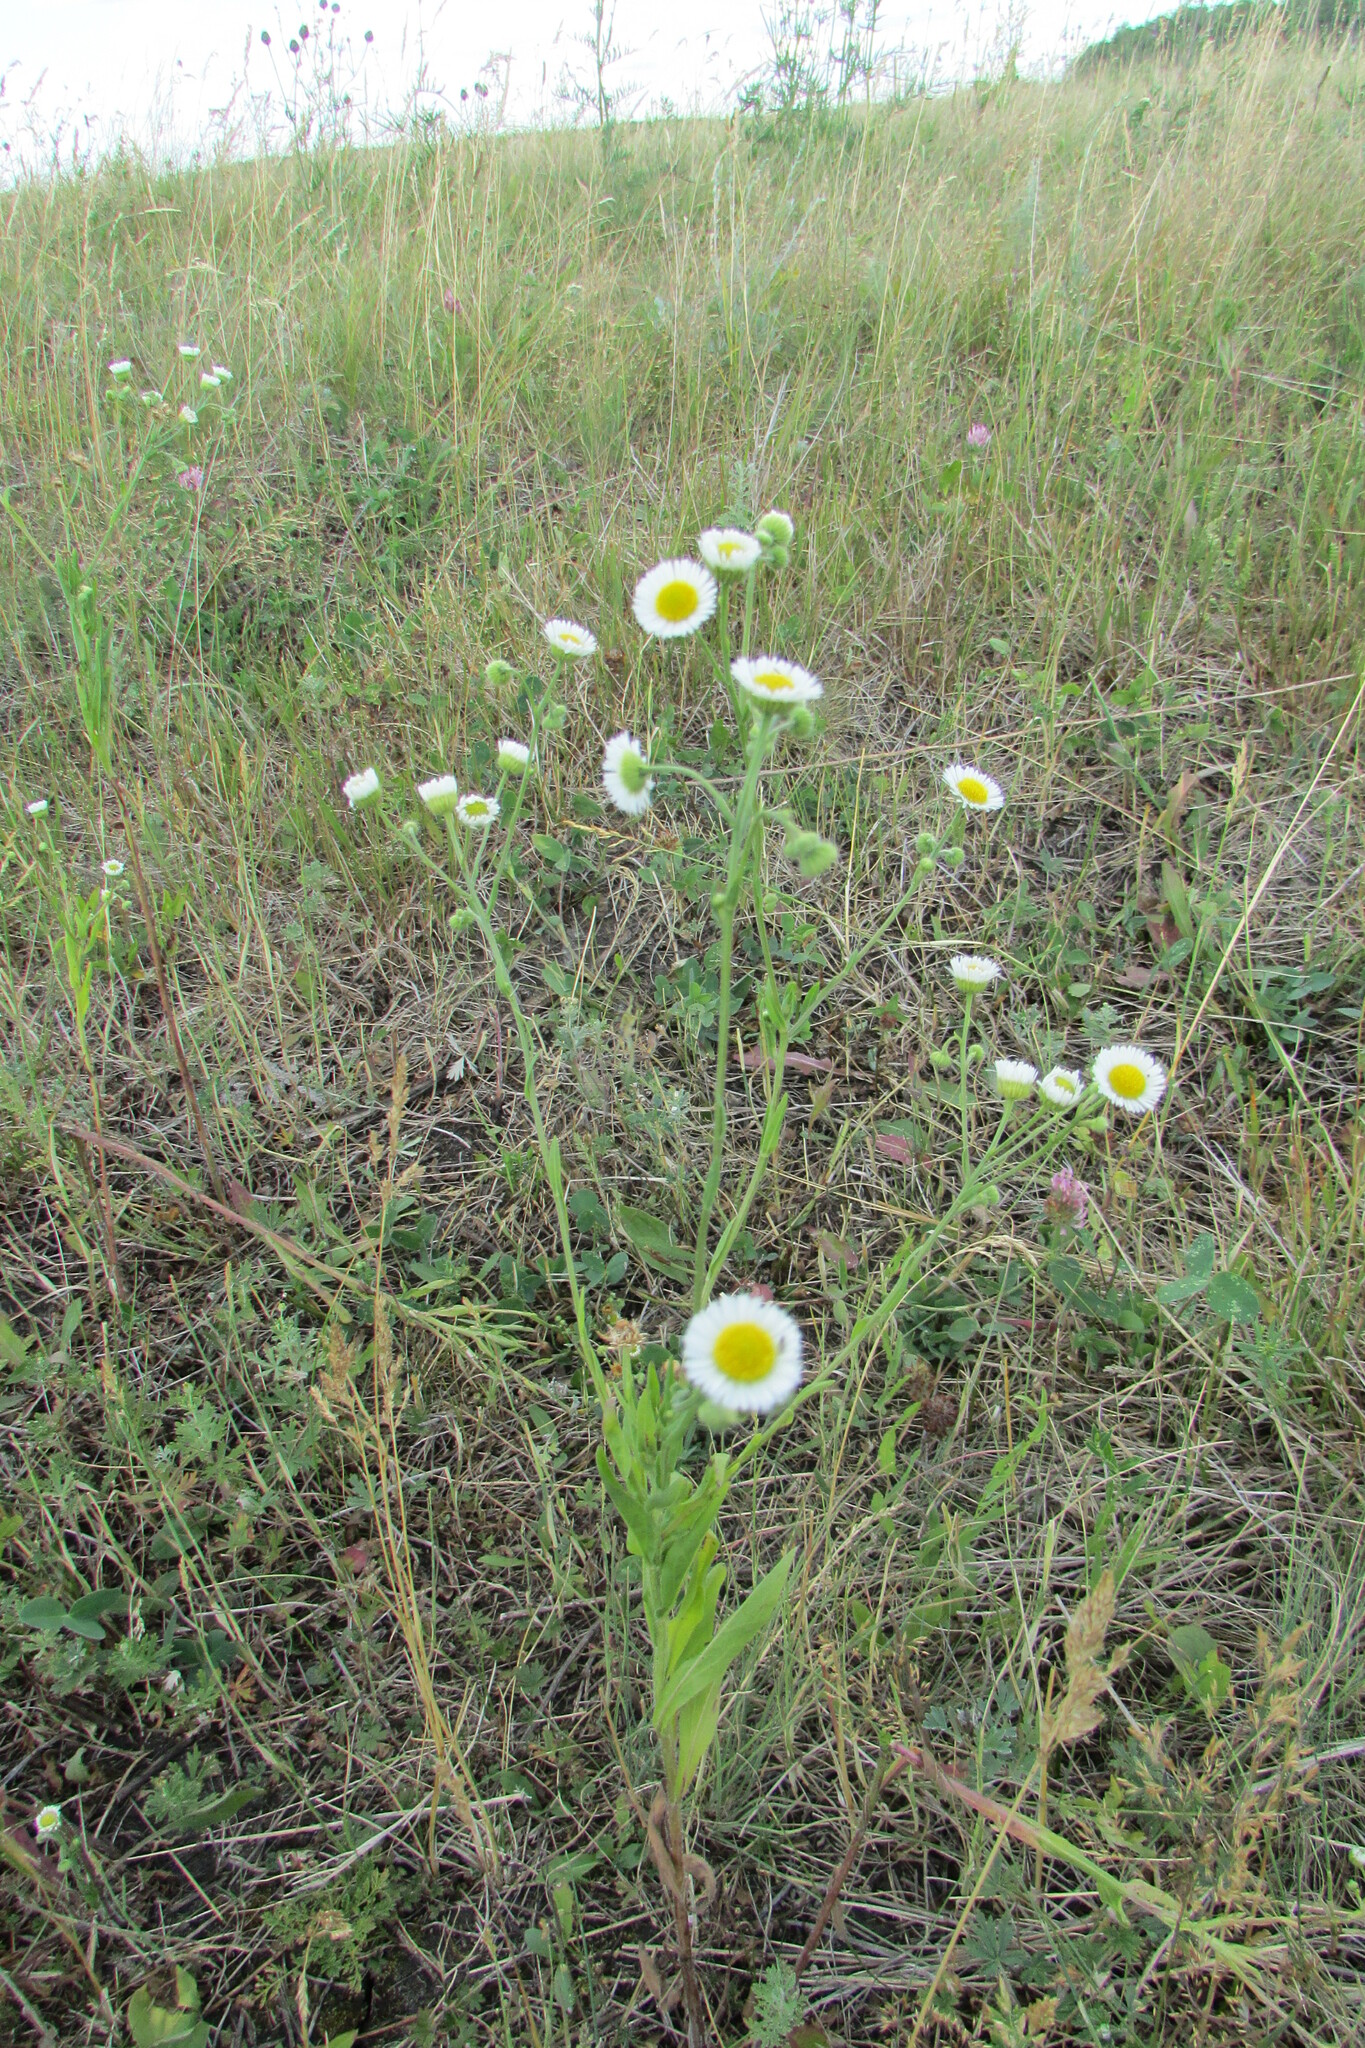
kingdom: Plantae
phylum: Tracheophyta
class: Magnoliopsida
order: Asterales
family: Asteraceae
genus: Erigeron
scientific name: Erigeron annuus
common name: Tall fleabane
